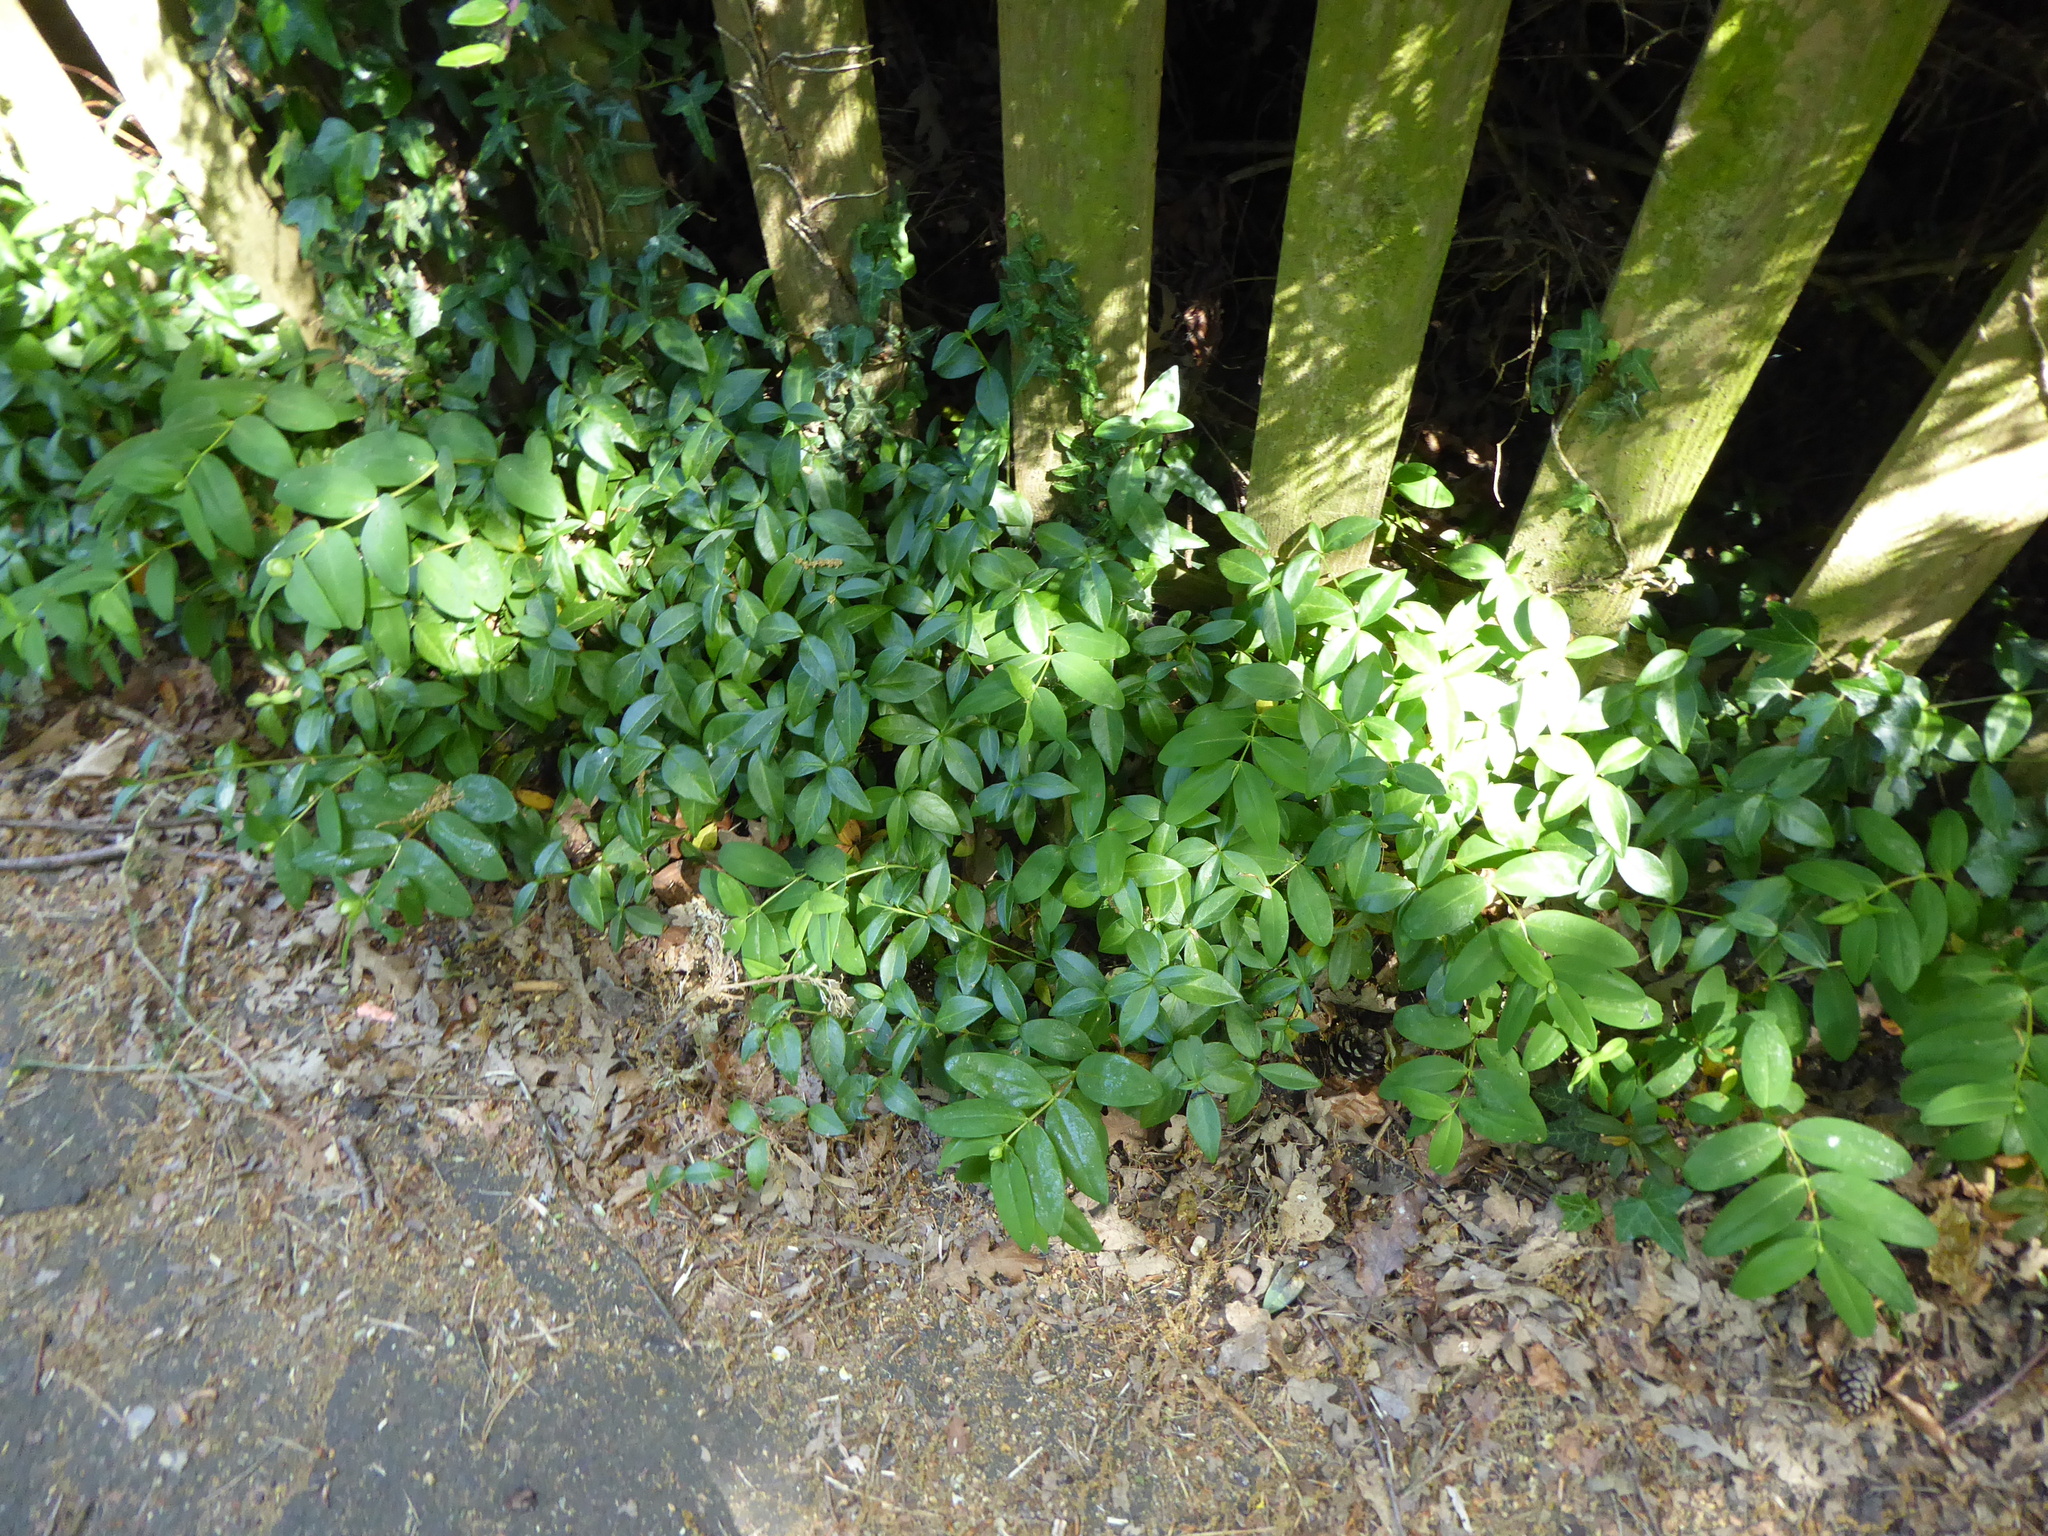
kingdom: Plantae
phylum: Tracheophyta
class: Magnoliopsida
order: Malpighiales
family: Hypericaceae
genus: Hypericum
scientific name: Hypericum calycinum
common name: Rose-of-sharon
